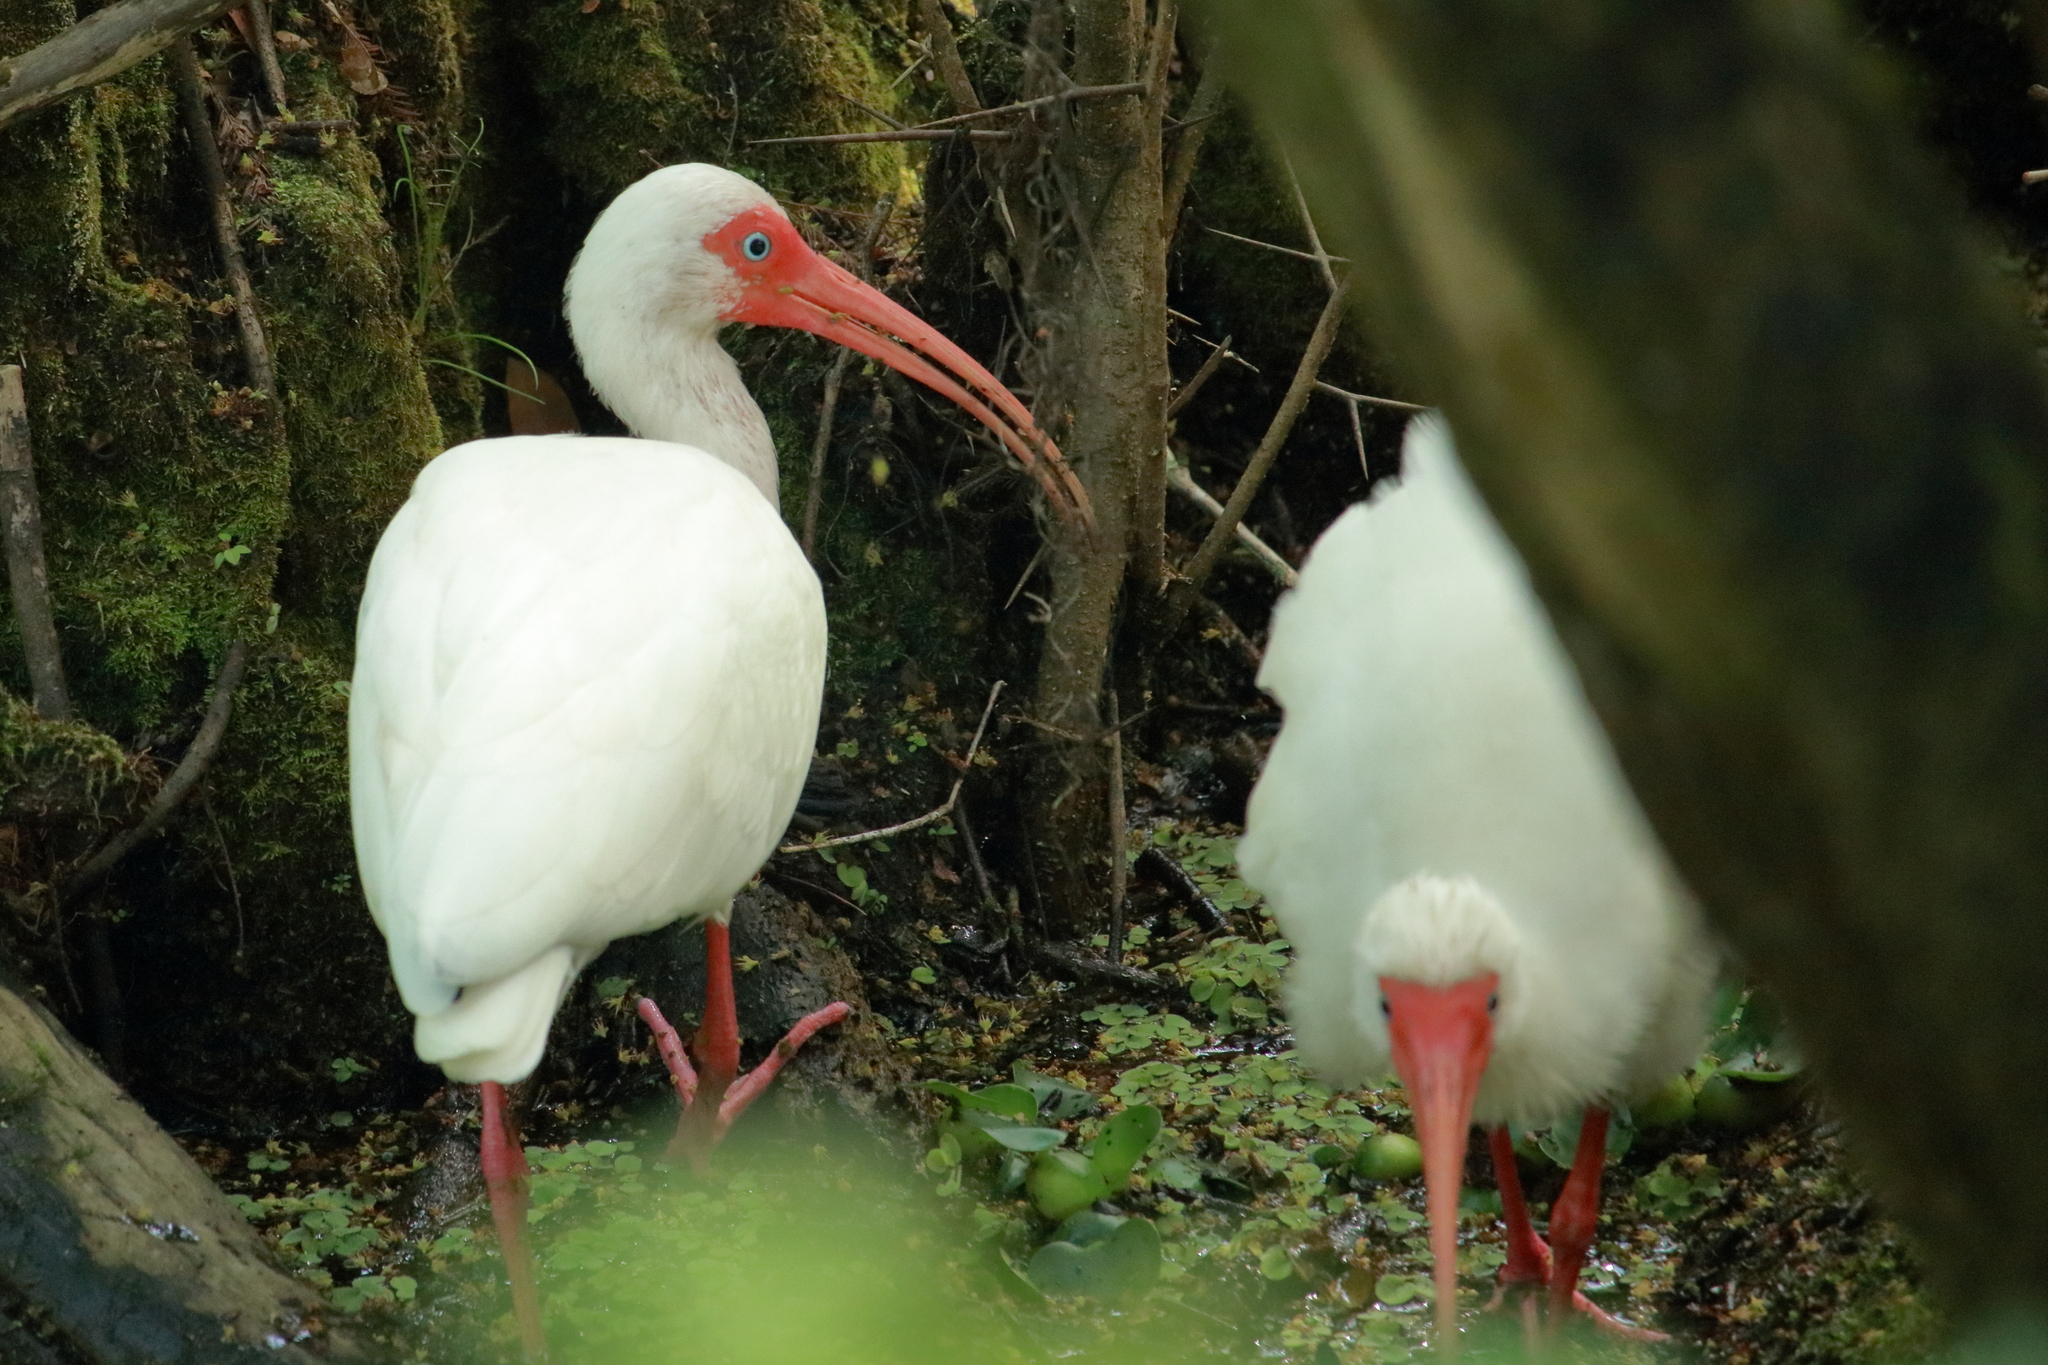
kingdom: Animalia
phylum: Chordata
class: Aves
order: Pelecaniformes
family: Threskiornithidae
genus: Eudocimus
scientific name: Eudocimus albus
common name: White ibis
